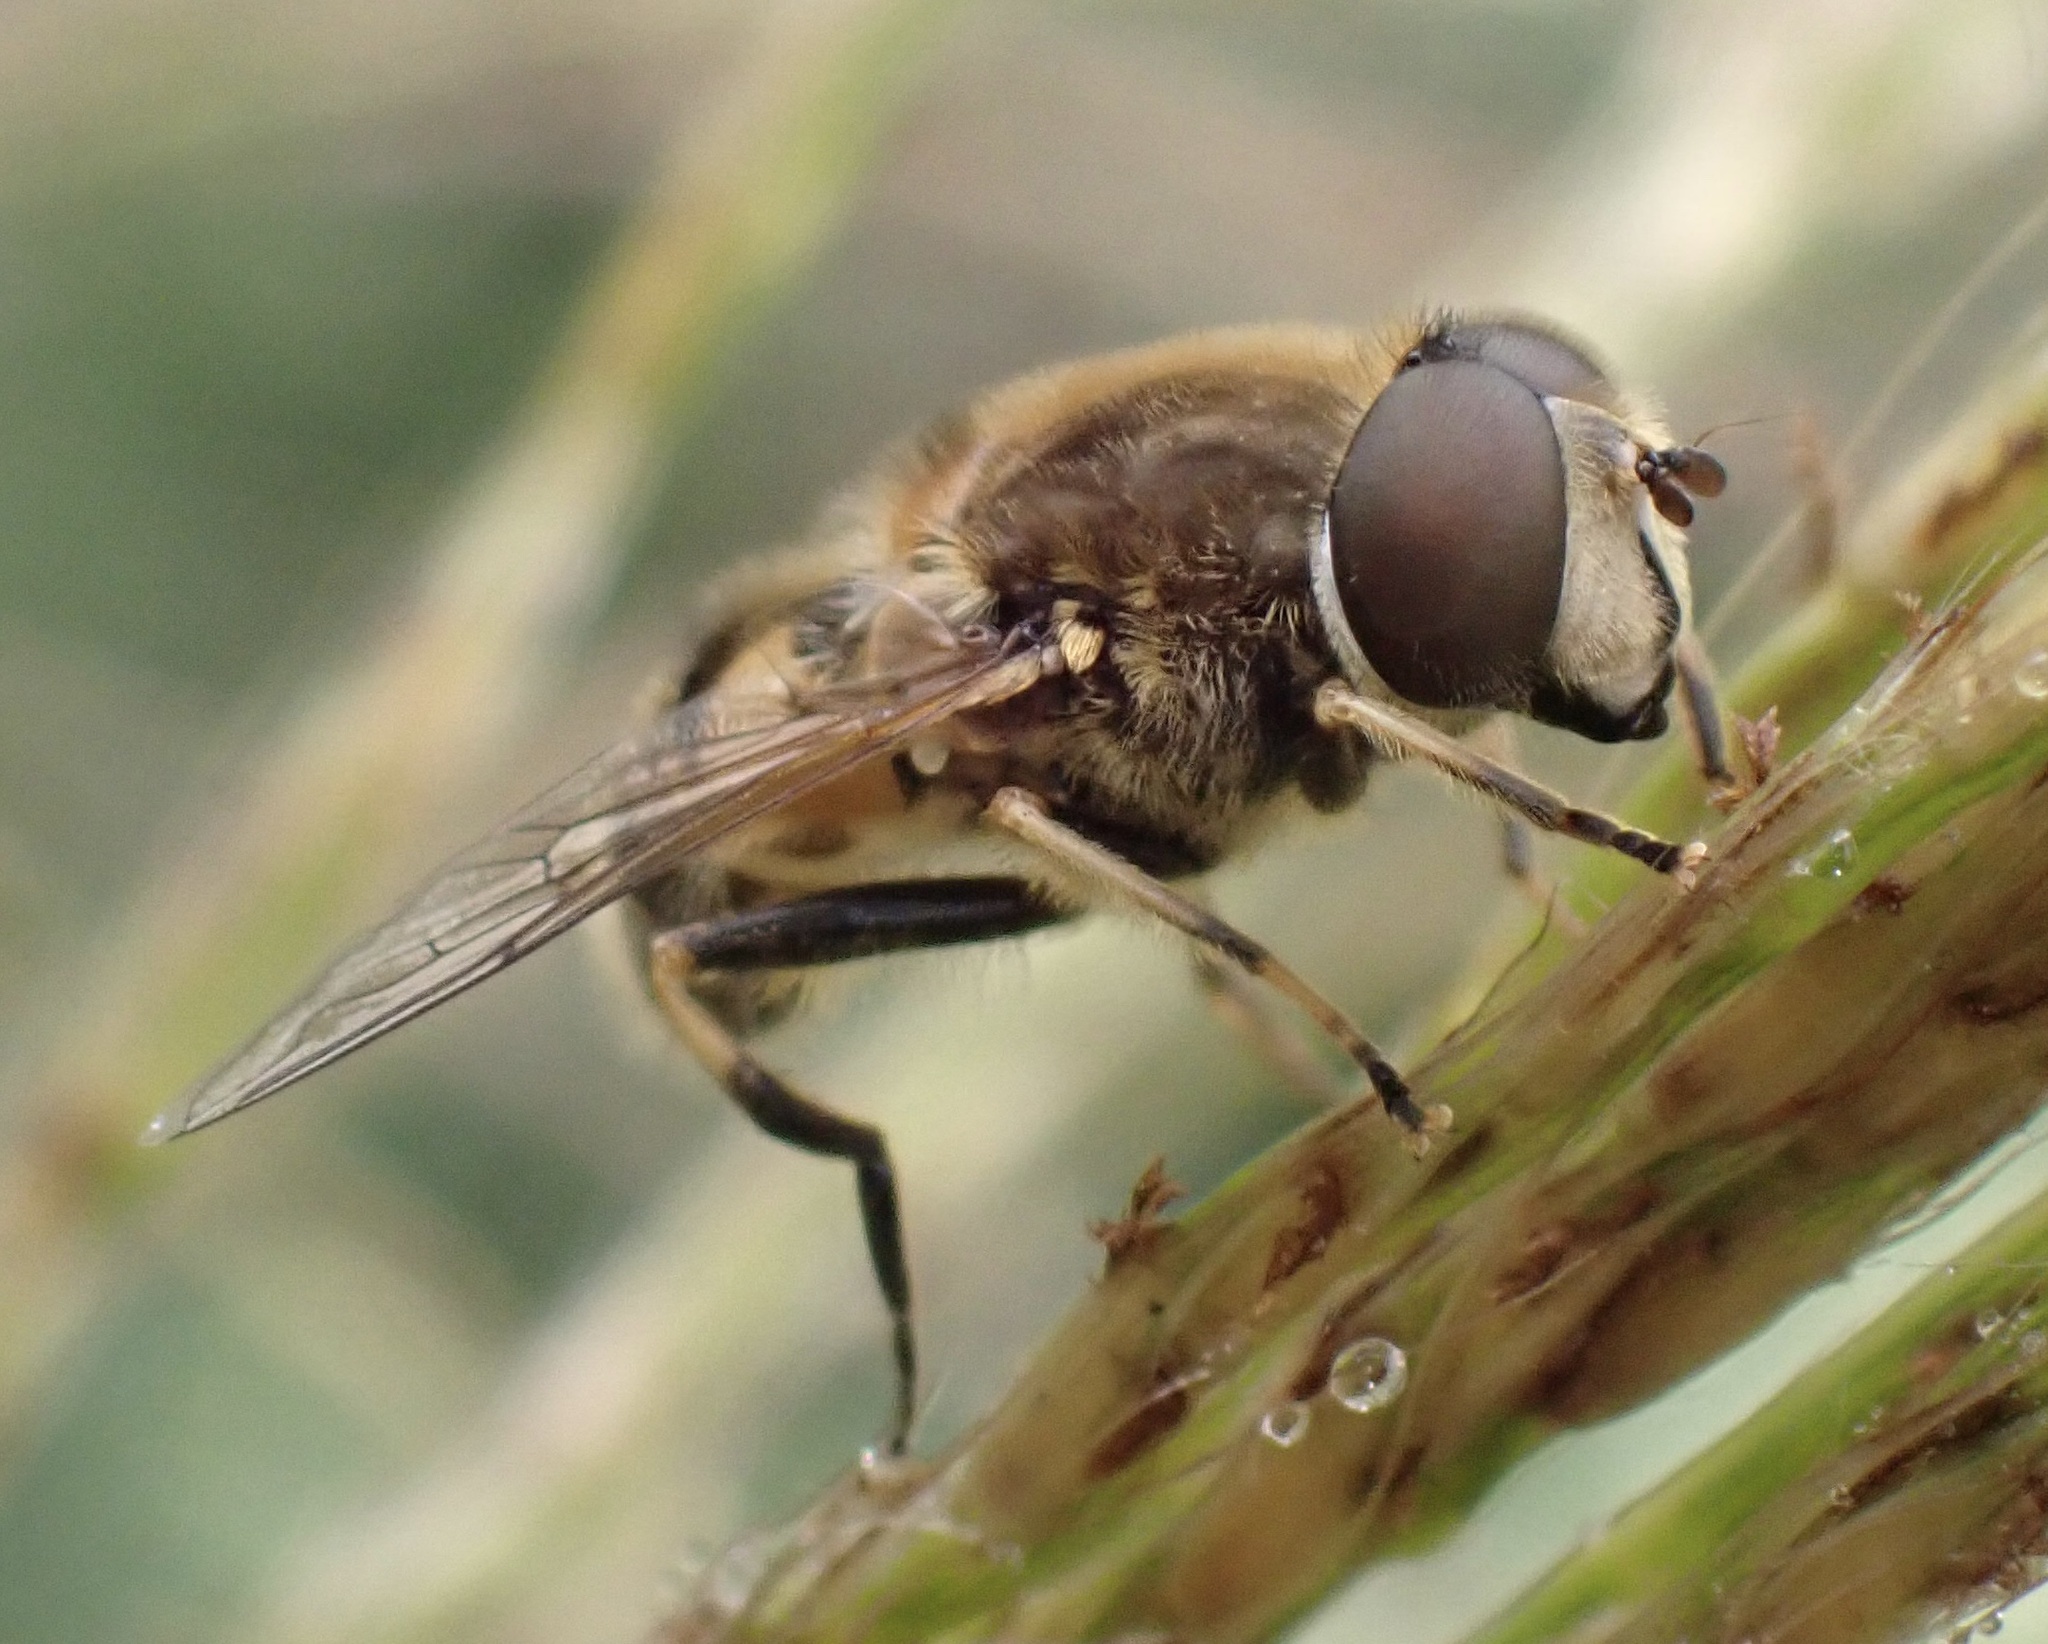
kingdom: Animalia
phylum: Arthropoda
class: Insecta
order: Diptera
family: Syrphidae
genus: Eristalis
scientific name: Eristalis nemorum
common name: Orange-spined drone fly
